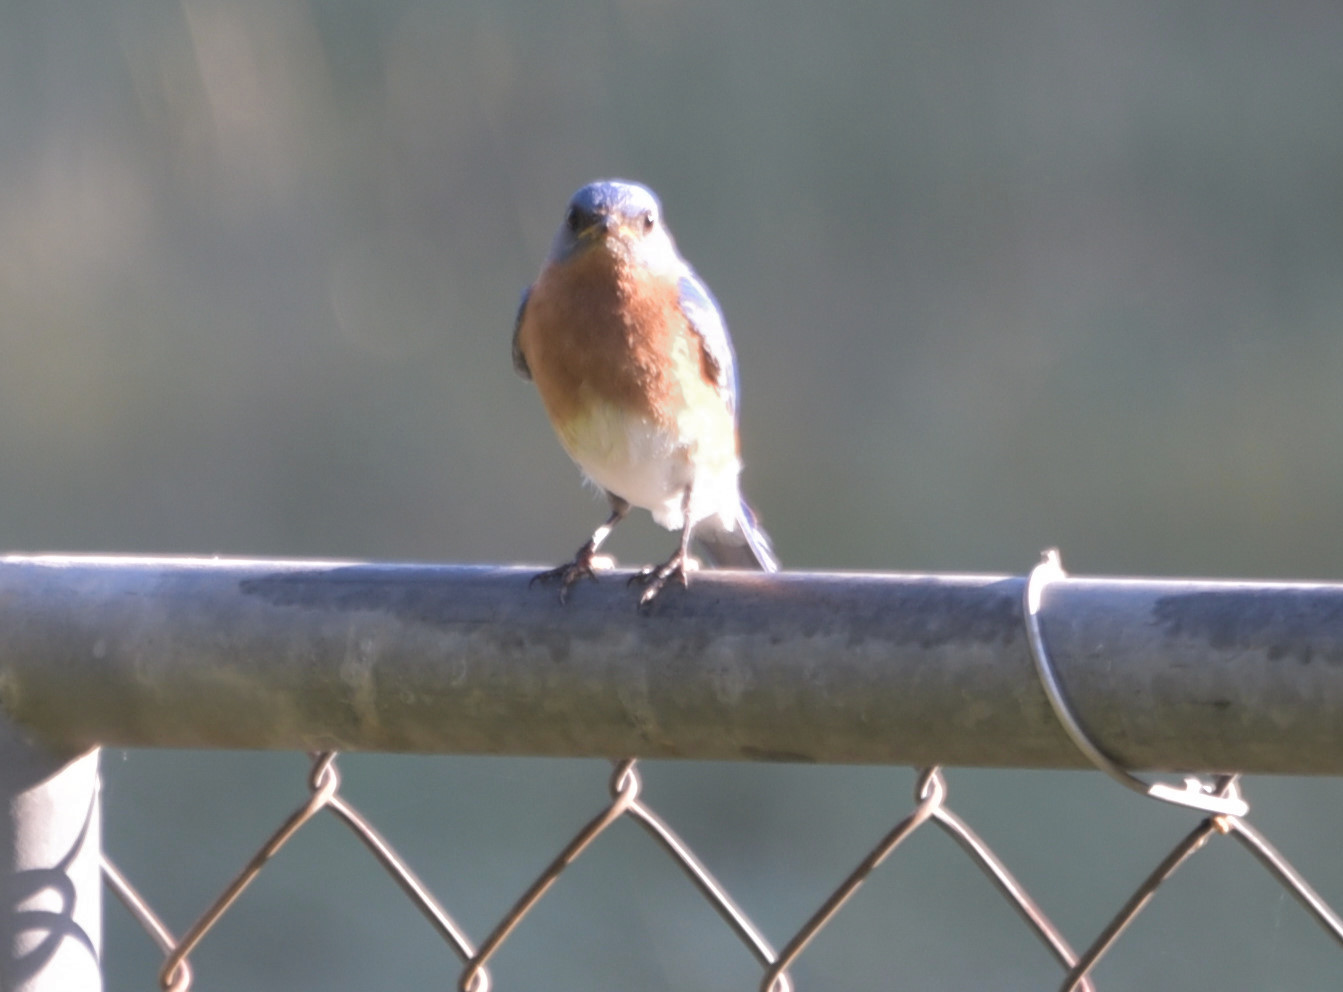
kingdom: Animalia
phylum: Chordata
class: Aves
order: Passeriformes
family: Turdidae
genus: Sialia
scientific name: Sialia sialis
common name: Eastern bluebird
